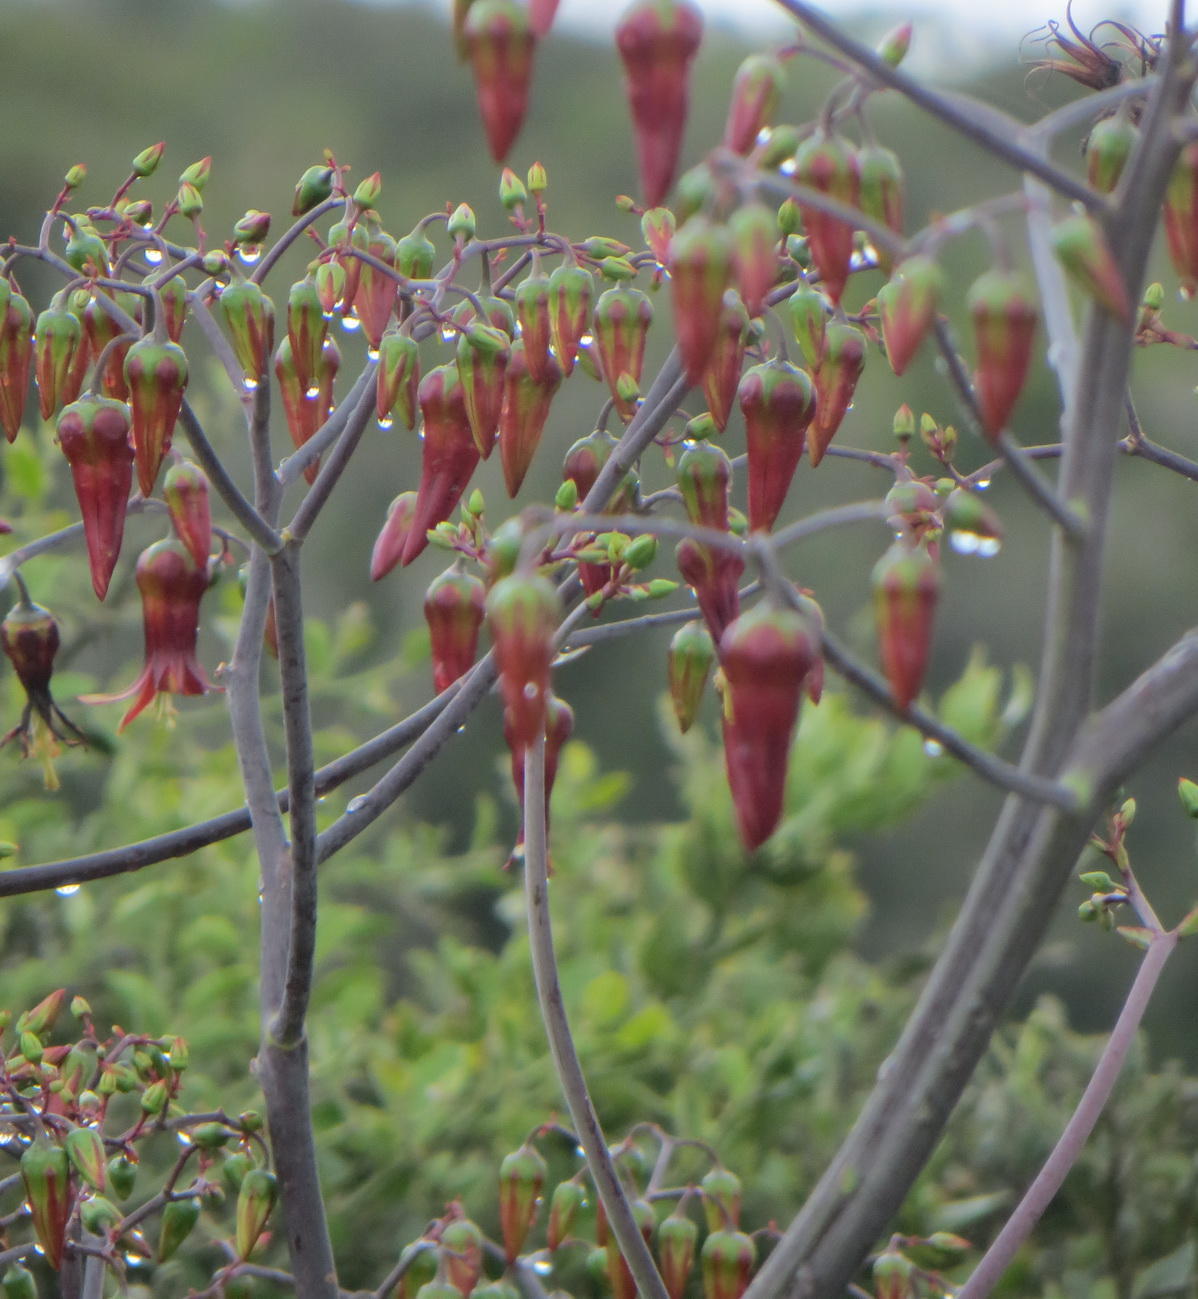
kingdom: Plantae
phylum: Tracheophyta
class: Magnoliopsida
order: Saxifragales
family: Crassulaceae
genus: Cotyledon
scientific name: Cotyledon velutina
